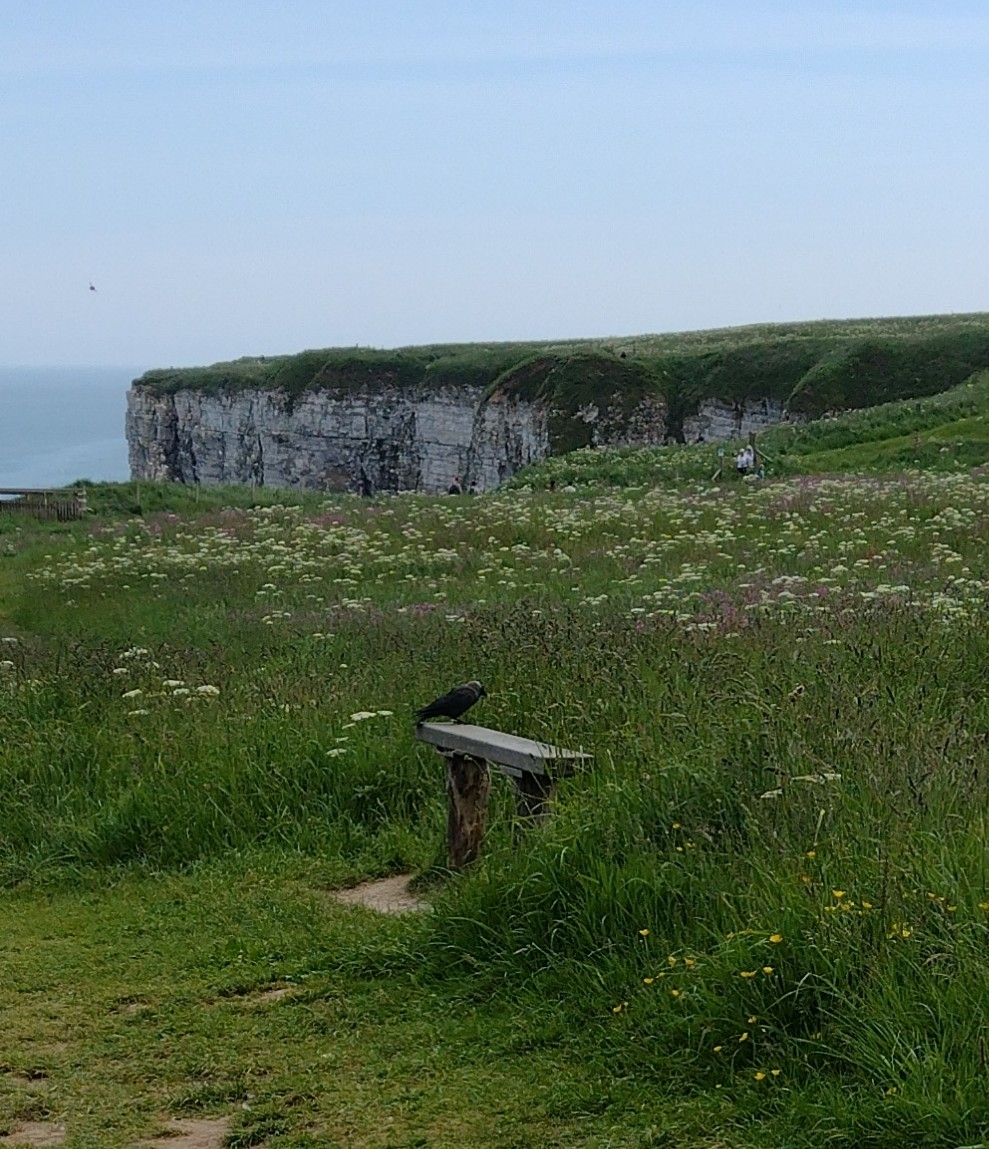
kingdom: Animalia
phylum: Chordata
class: Aves
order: Passeriformes
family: Corvidae
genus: Coloeus
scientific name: Coloeus monedula
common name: Western jackdaw
